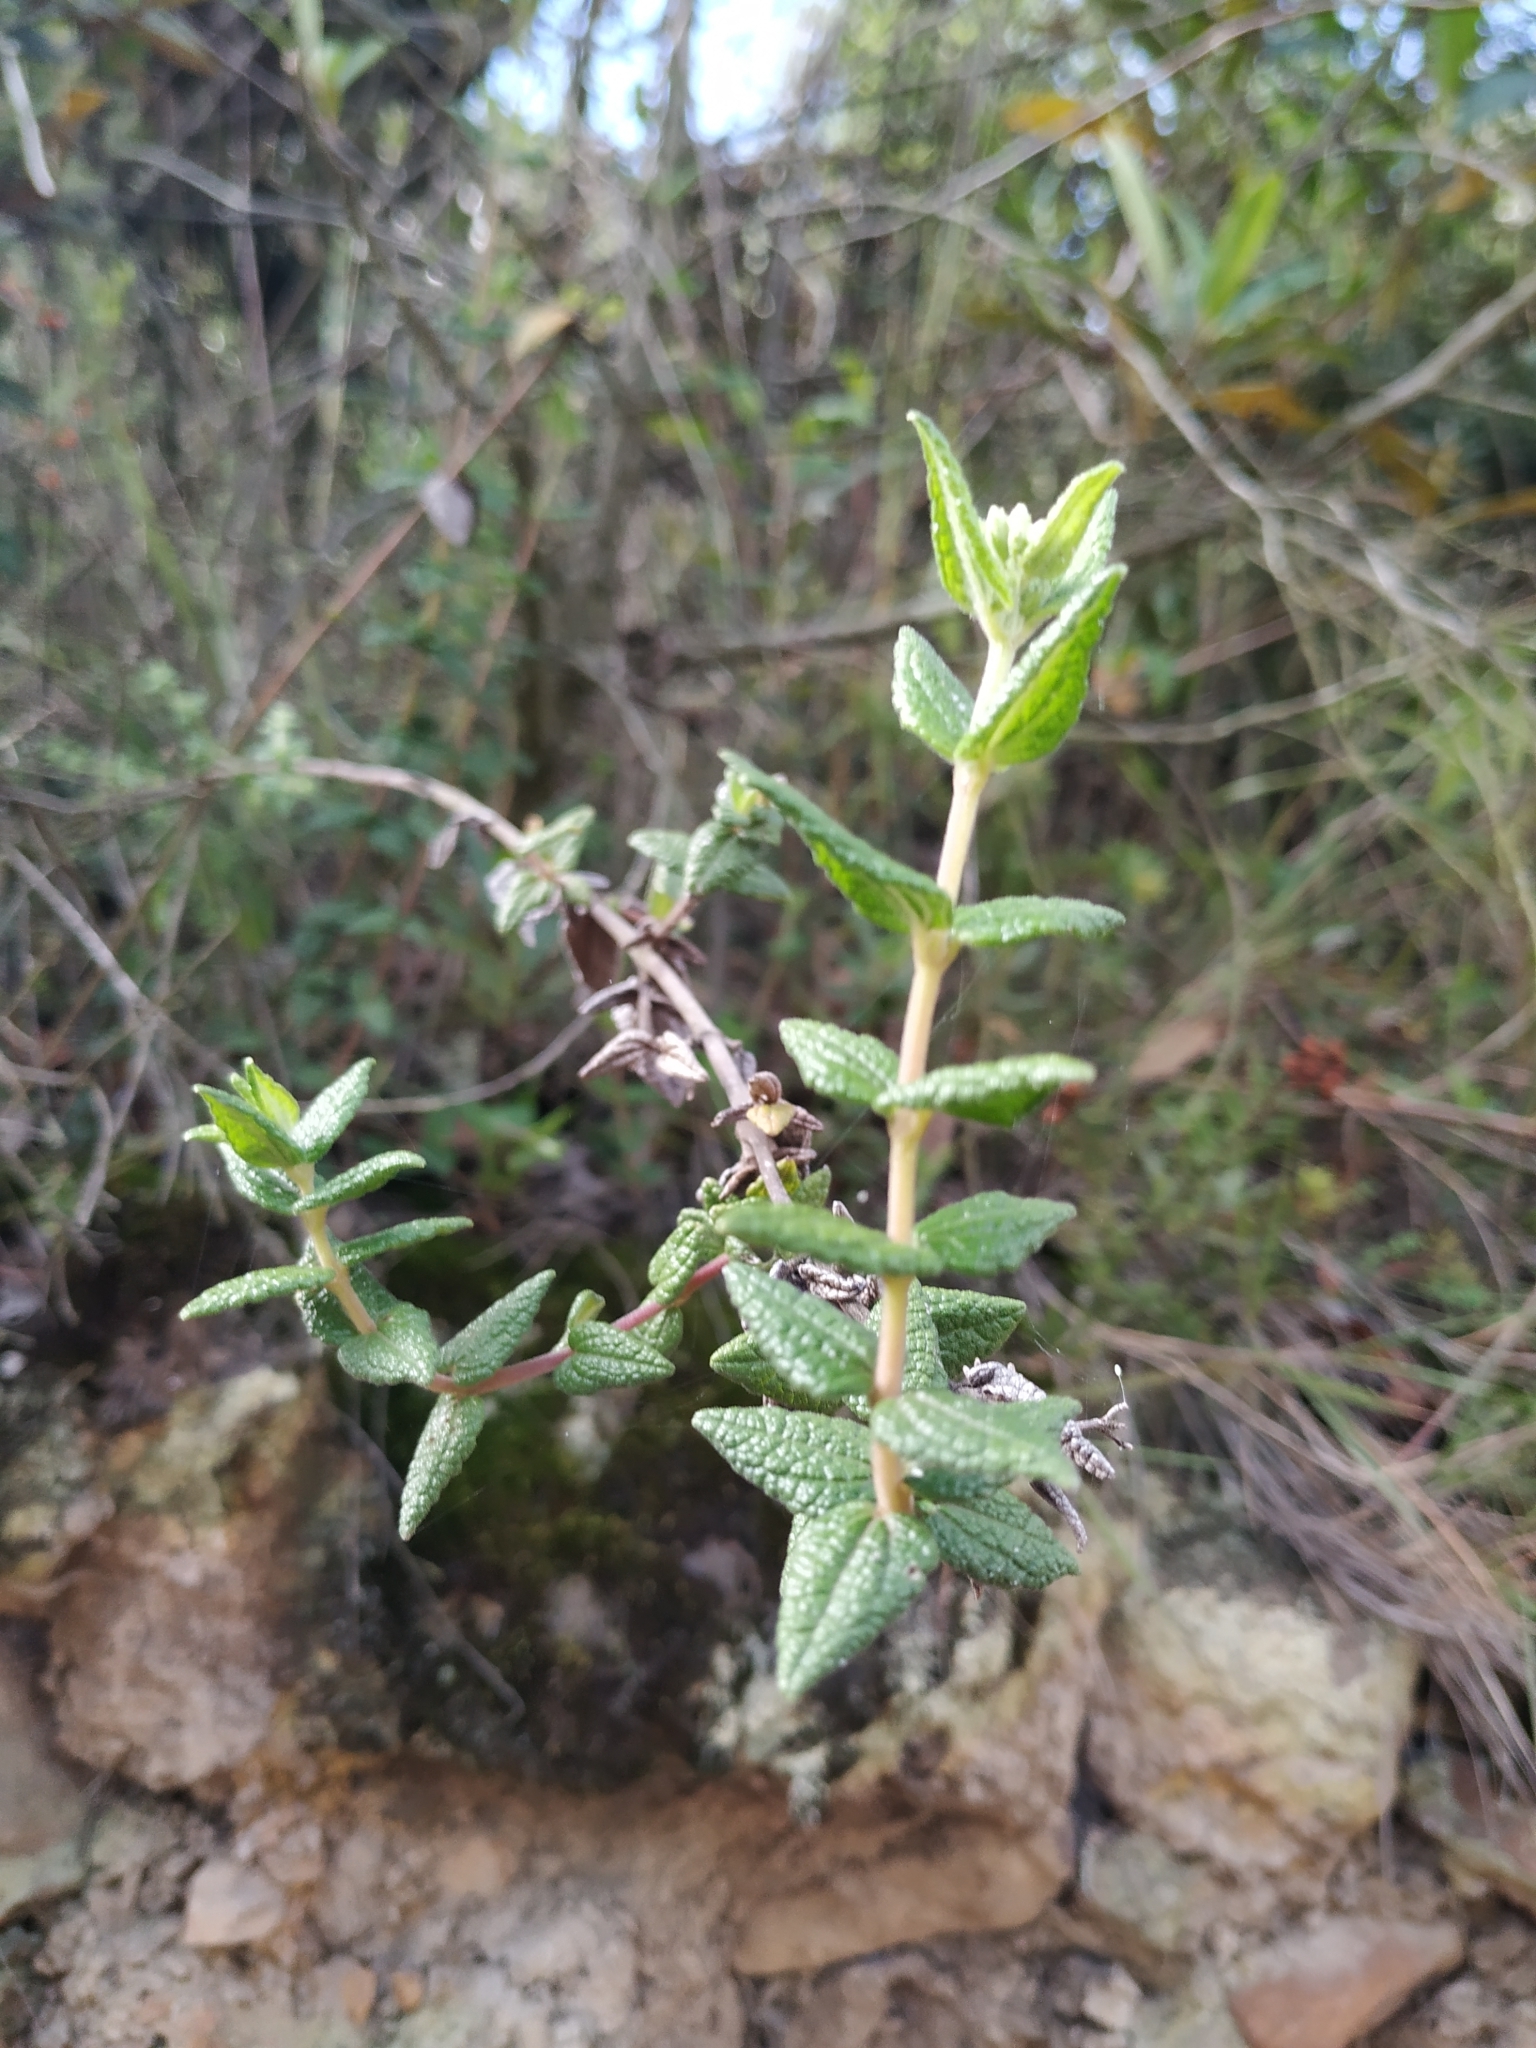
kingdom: Plantae
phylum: Tracheophyta
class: Magnoliopsida
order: Asterales
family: Asteraceae
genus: Chromolaena
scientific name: Chromolaena bullata
